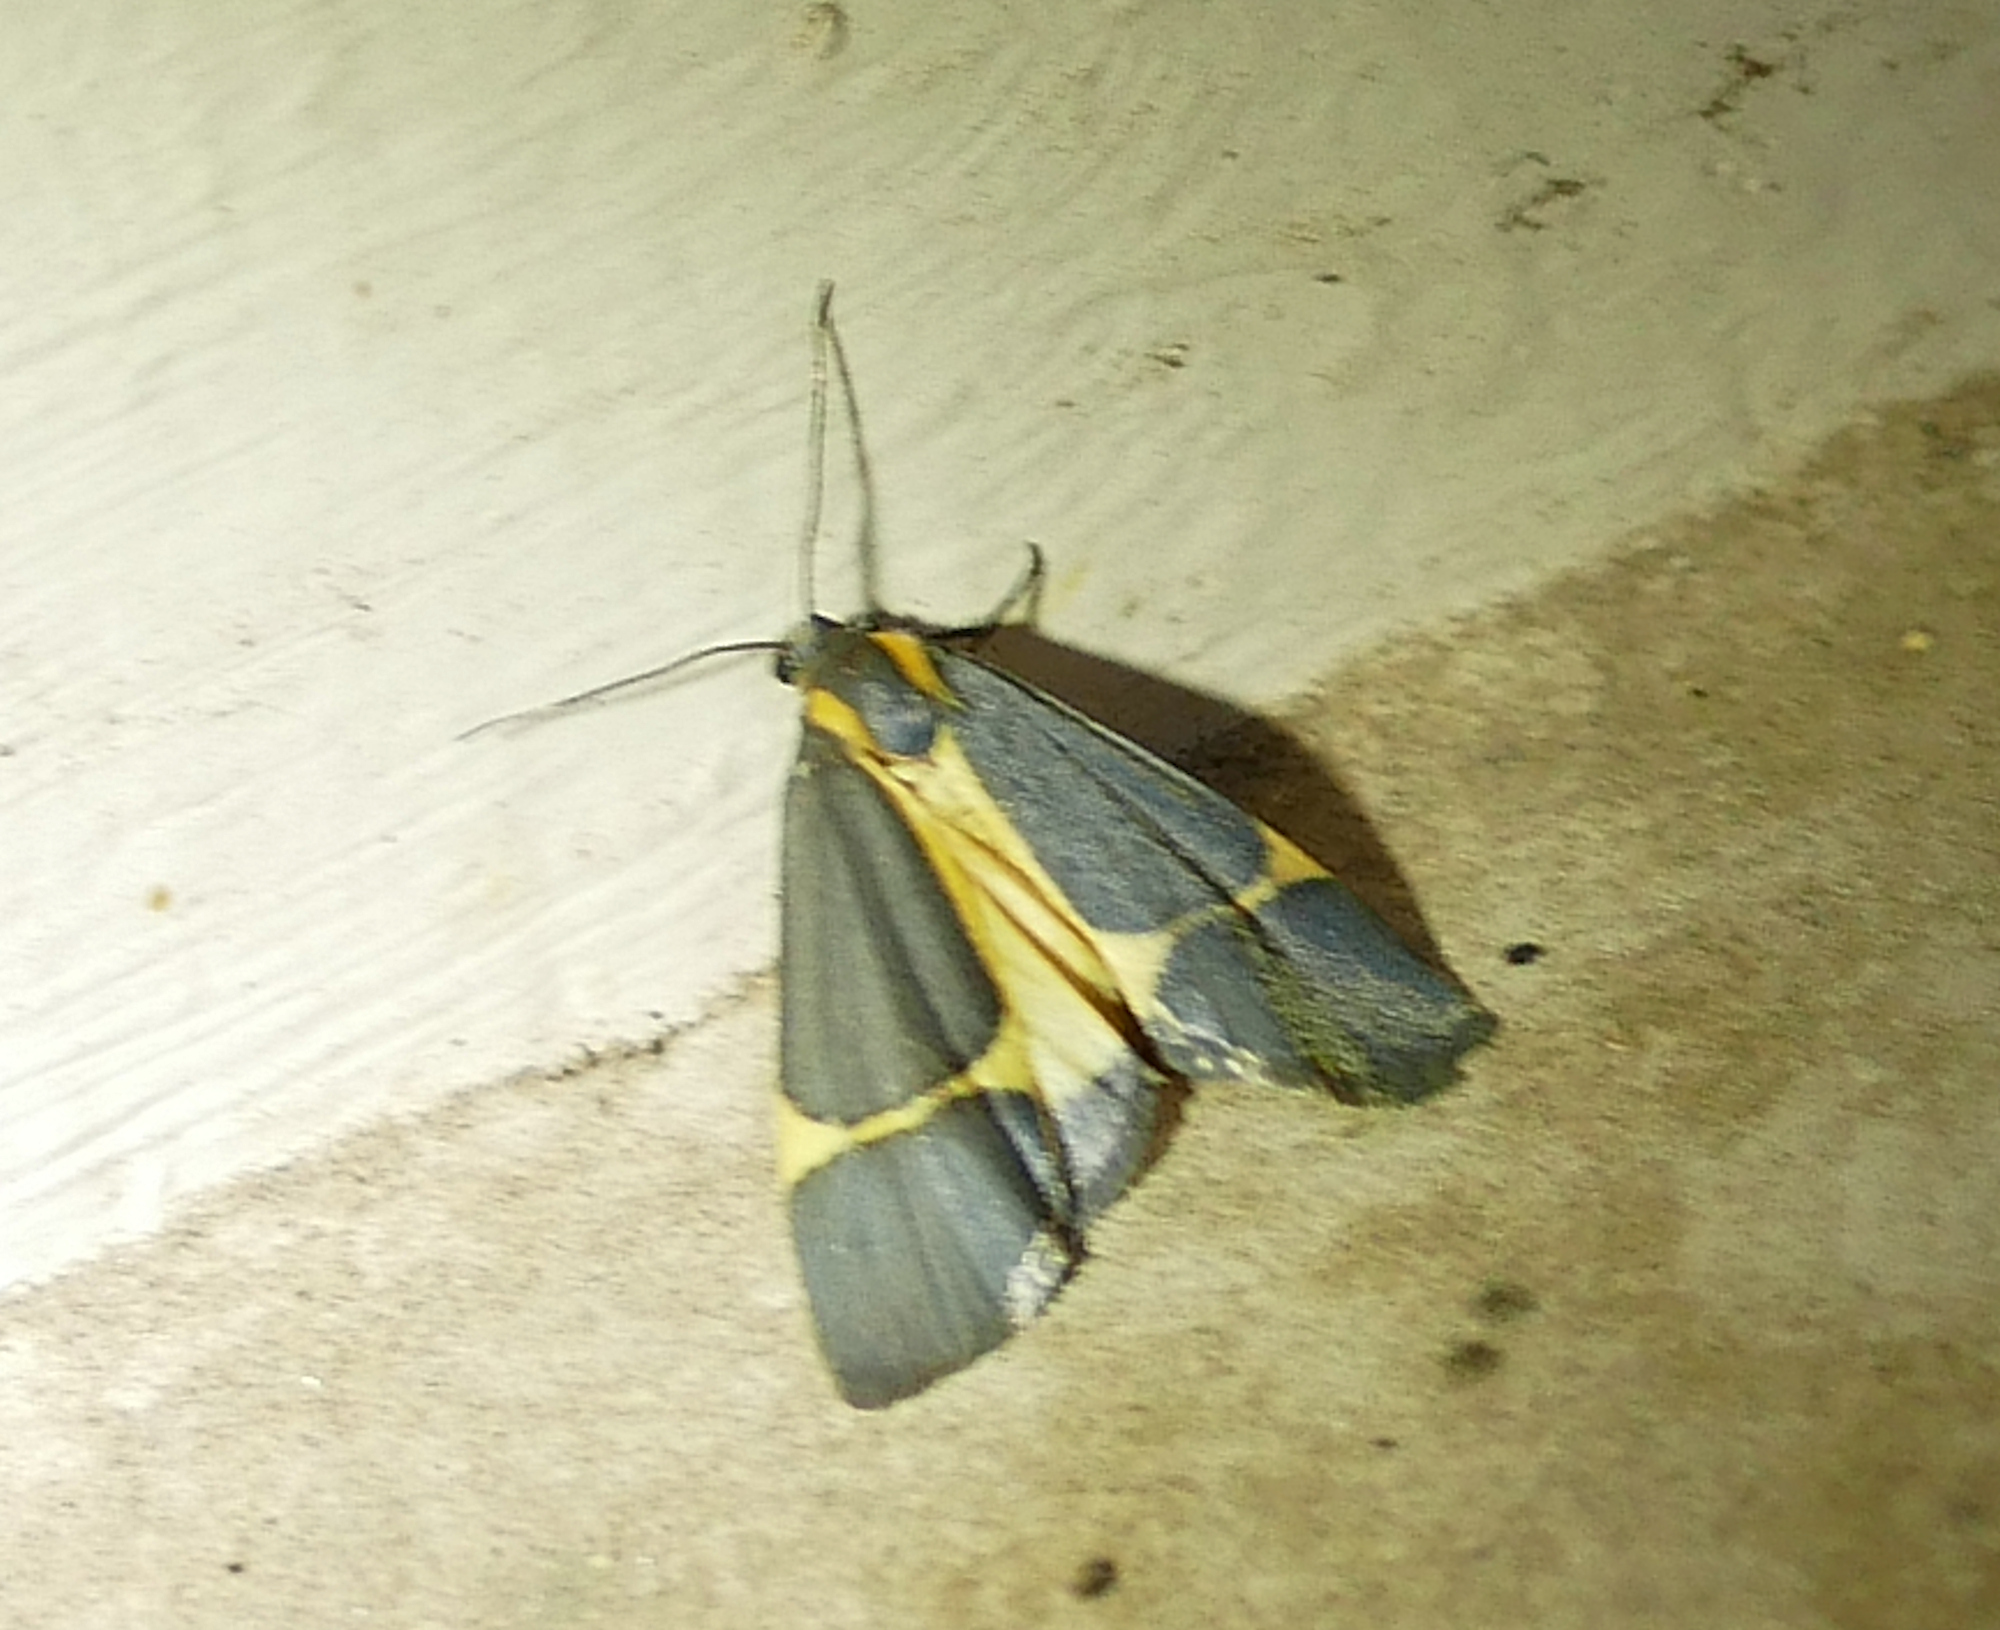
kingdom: Animalia
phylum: Arthropoda
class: Insecta
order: Lepidoptera
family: Erebidae
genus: Cisthene
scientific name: Cisthene barnesii
